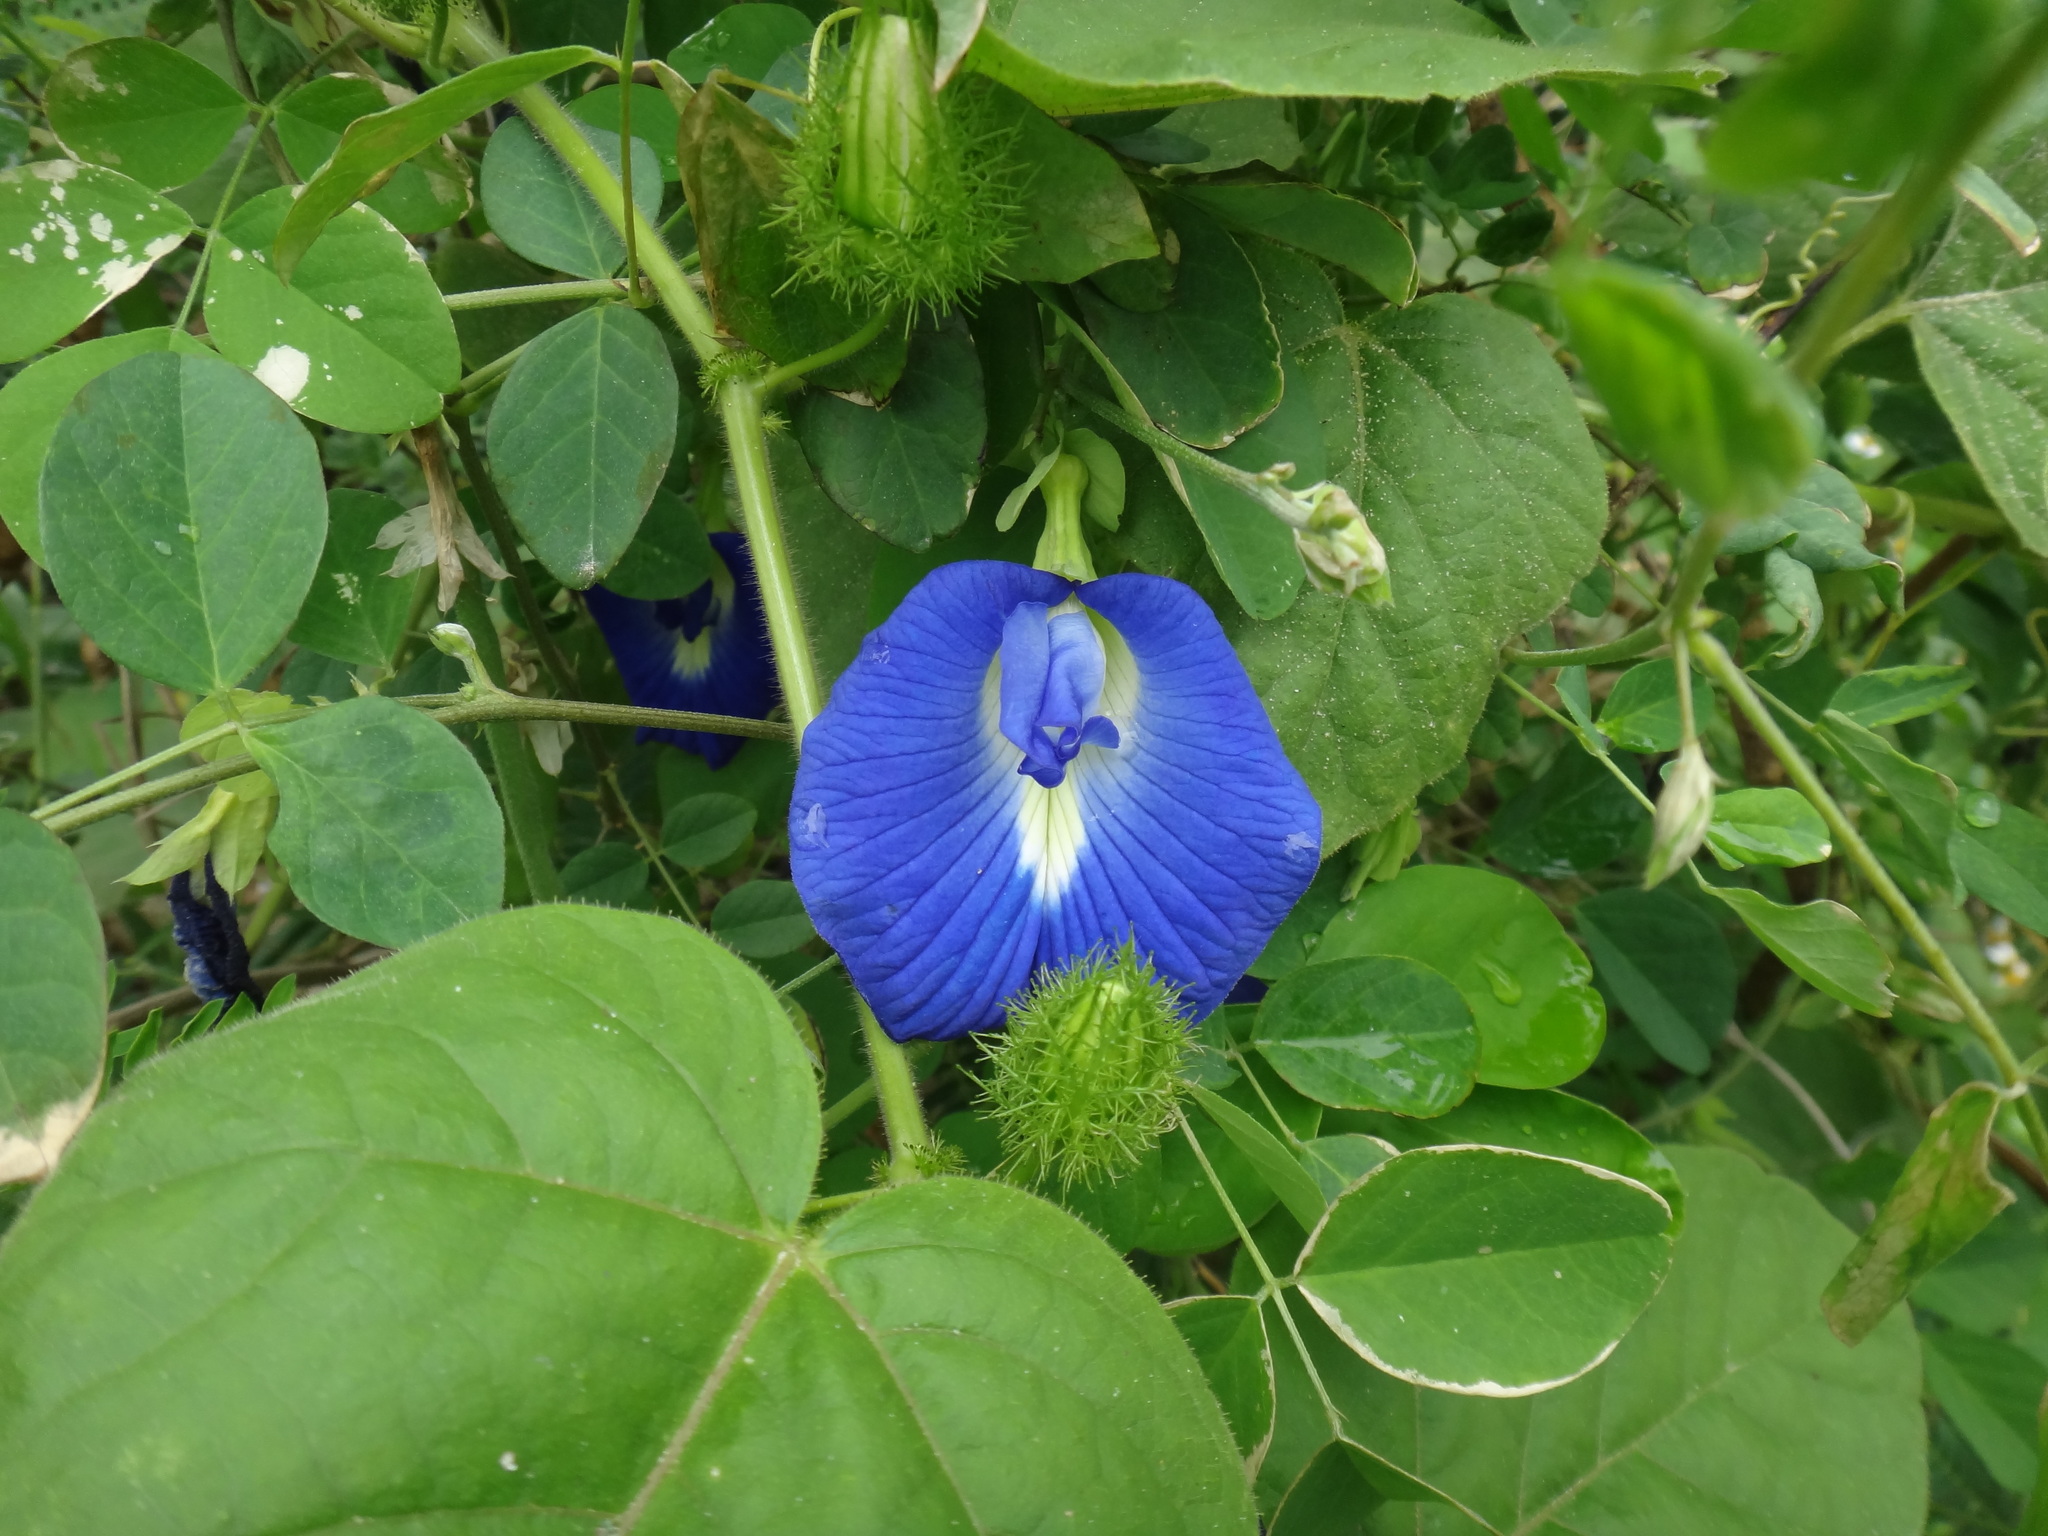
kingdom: Plantae
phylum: Tracheophyta
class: Magnoliopsida
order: Fabales
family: Fabaceae
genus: Clitoria
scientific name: Clitoria ternatea
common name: Asian pigeonwings
